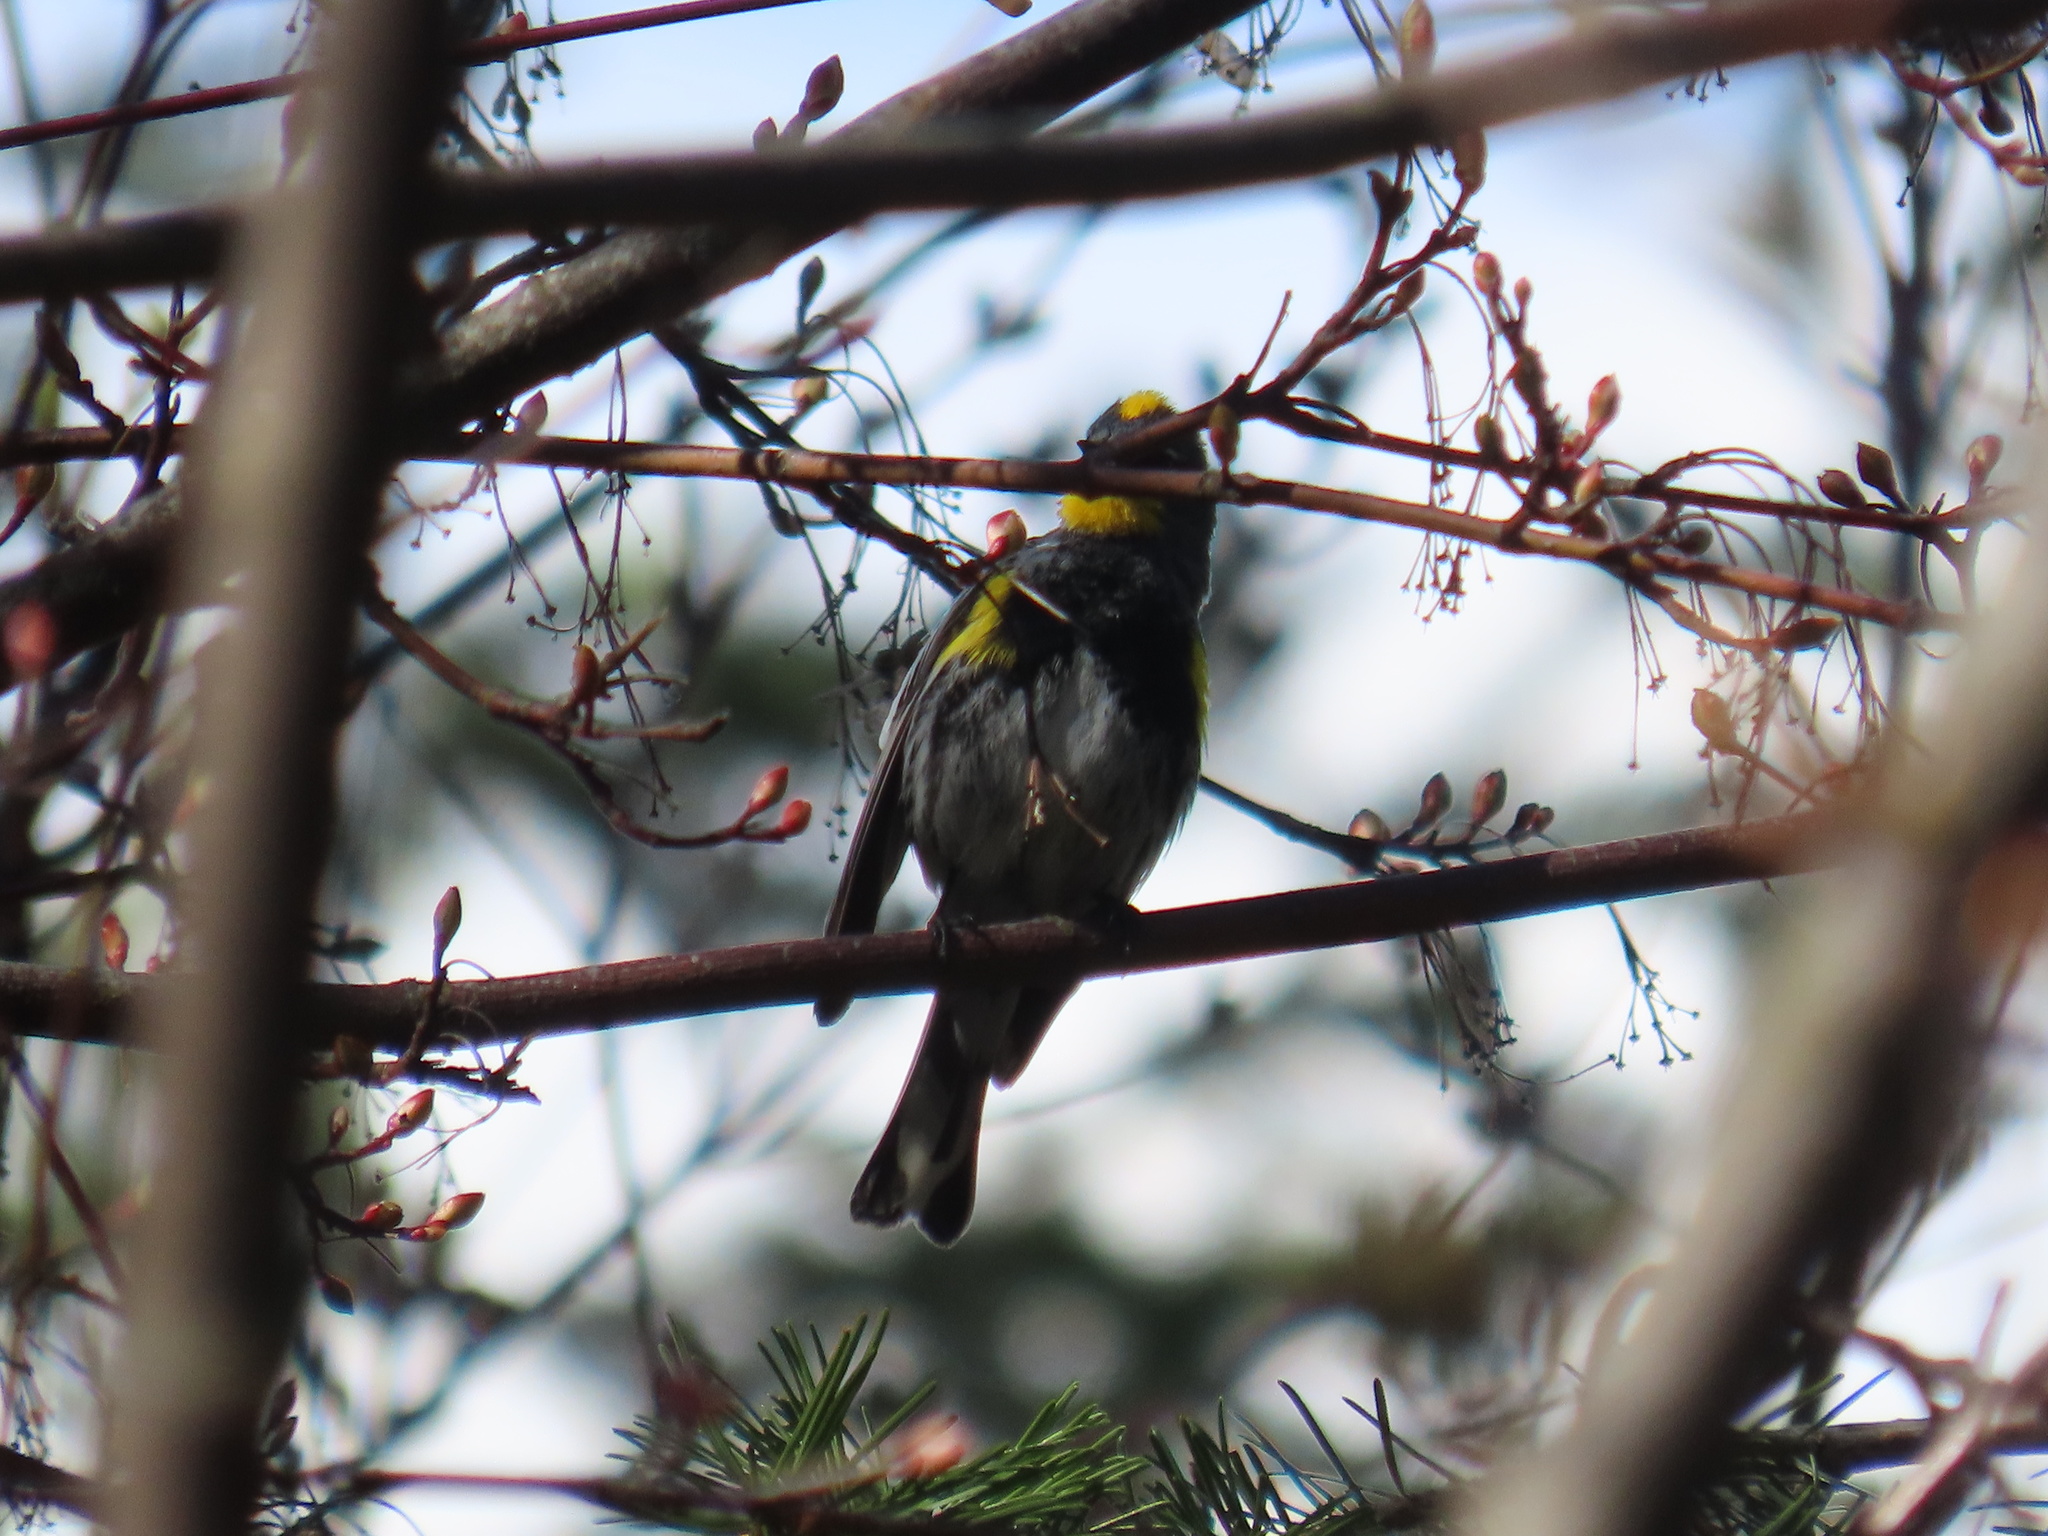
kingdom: Animalia
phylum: Chordata
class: Aves
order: Passeriformes
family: Parulidae
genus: Setophaga
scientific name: Setophaga coronata
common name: Myrtle warbler
